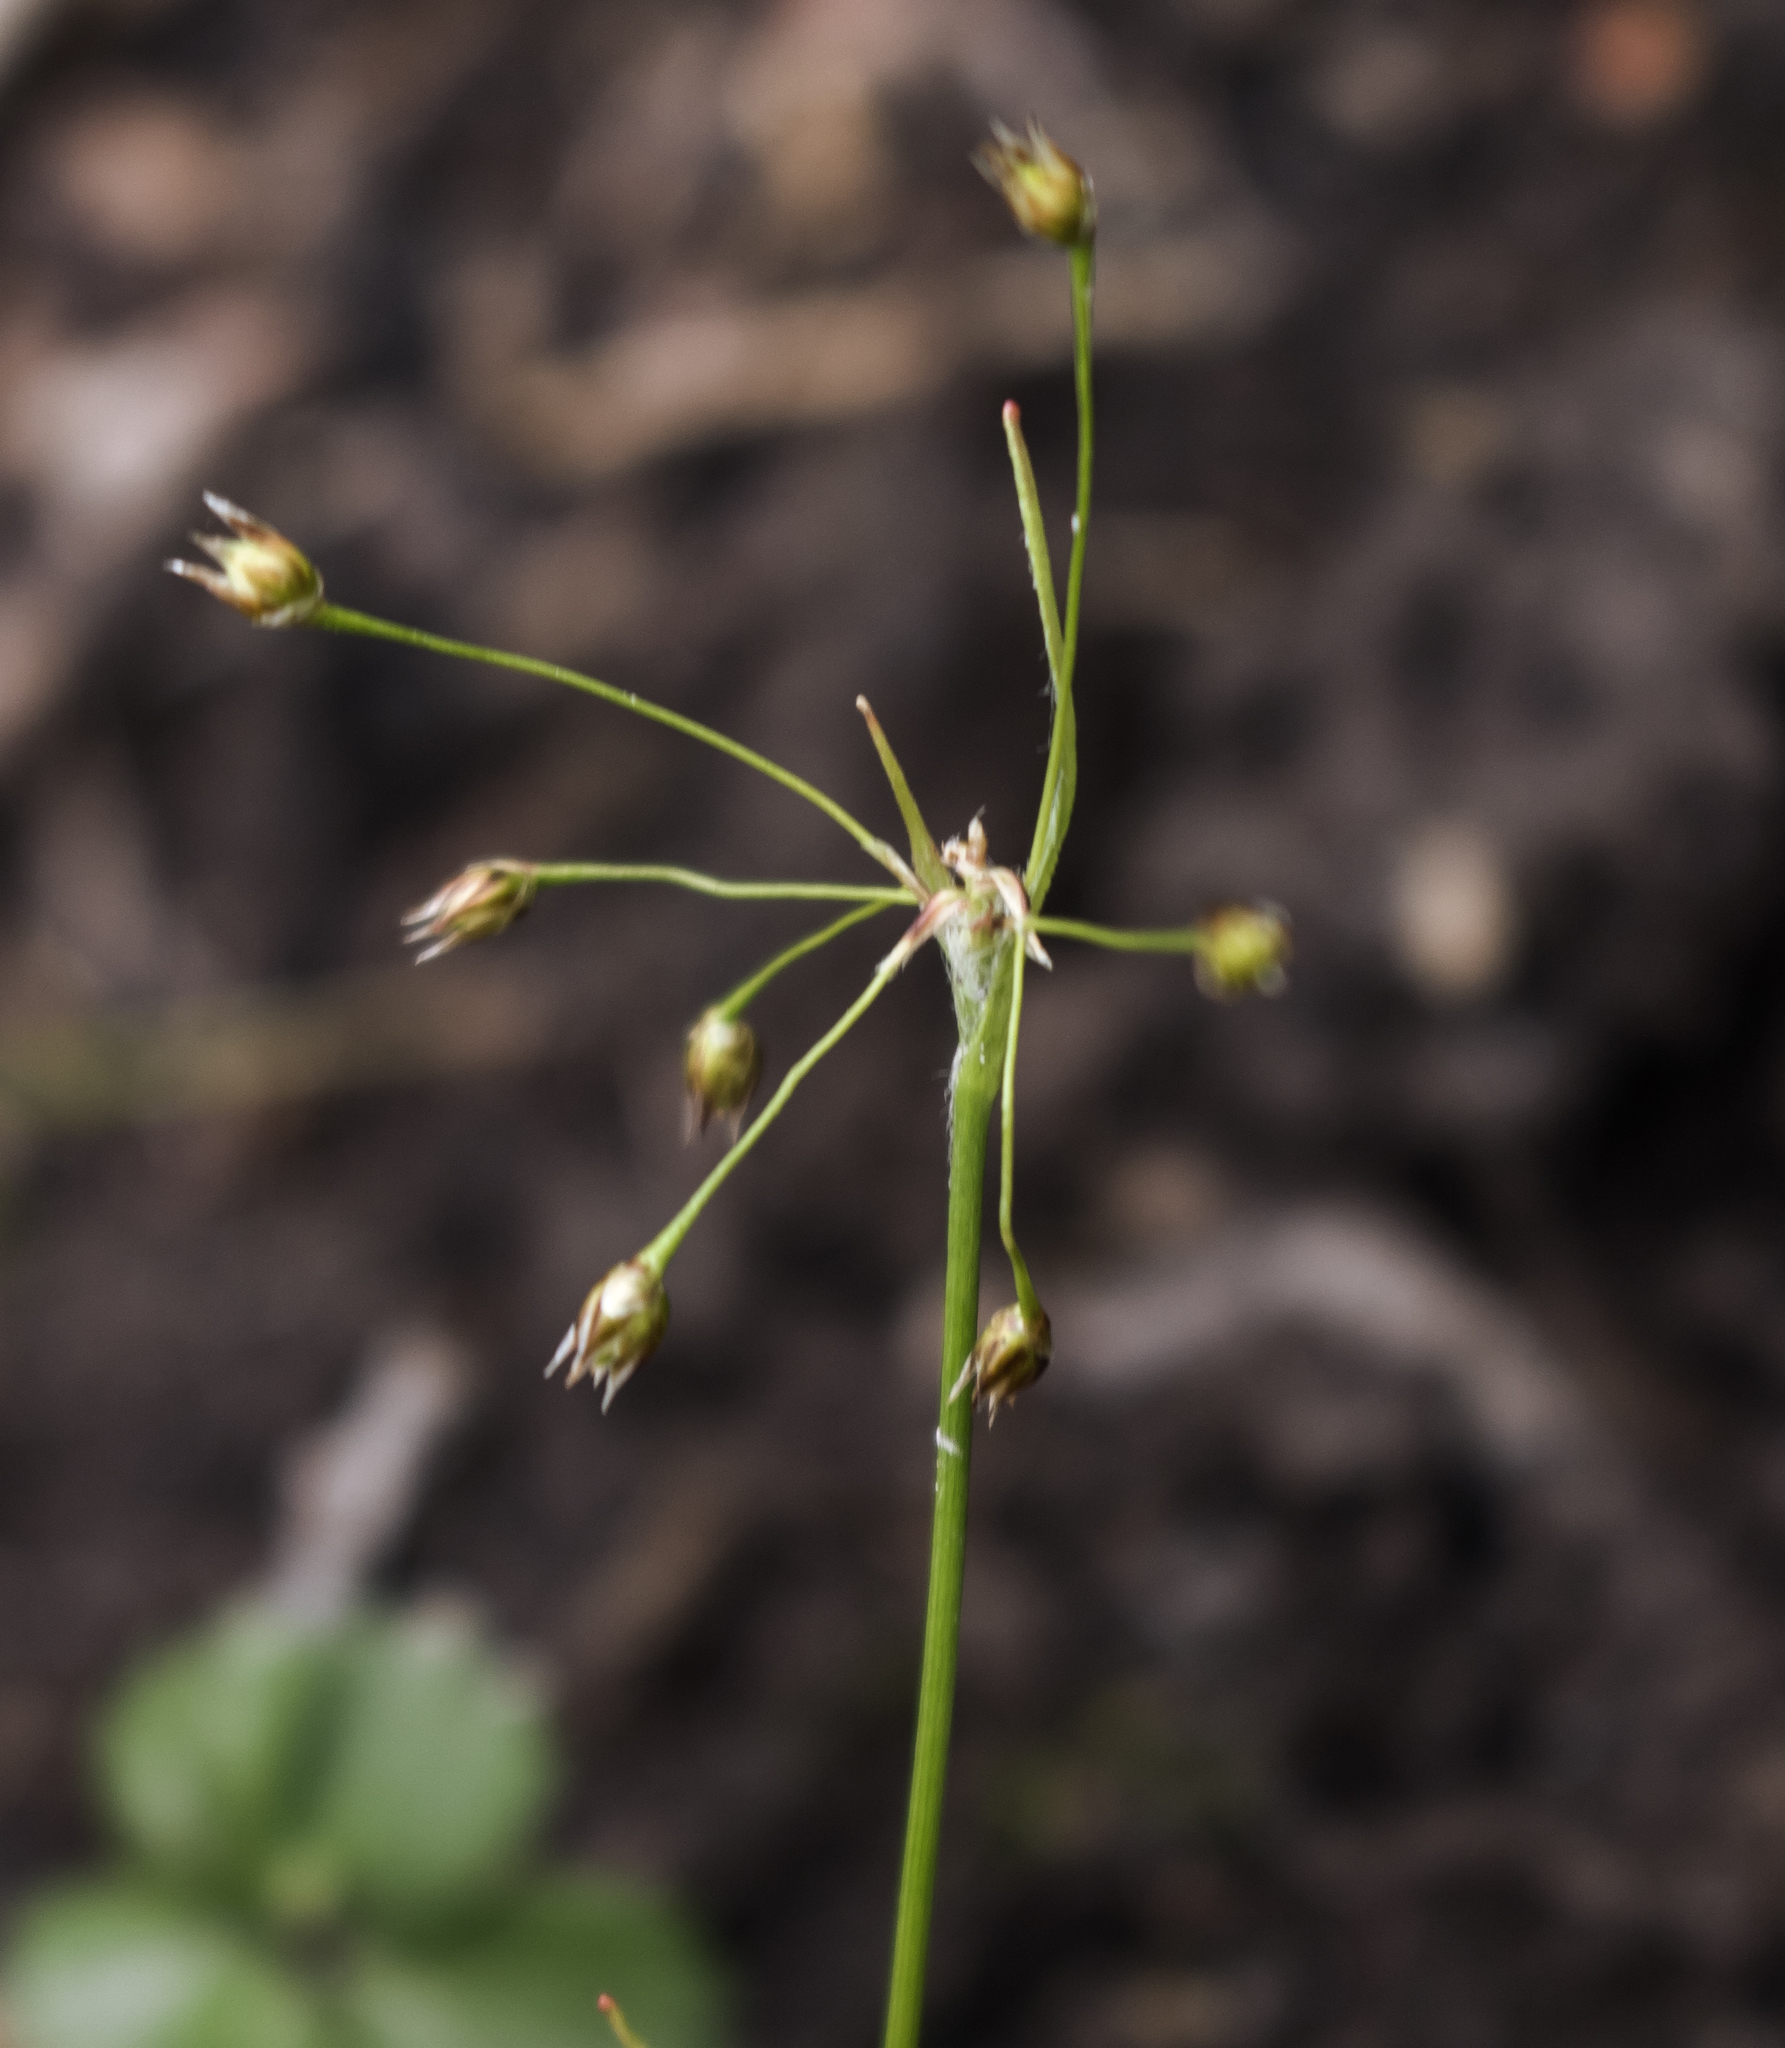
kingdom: Plantae
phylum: Tracheophyta
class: Liliopsida
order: Poales
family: Juncaceae
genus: Luzula
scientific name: Luzula acuminata
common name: Hairy woodrush
